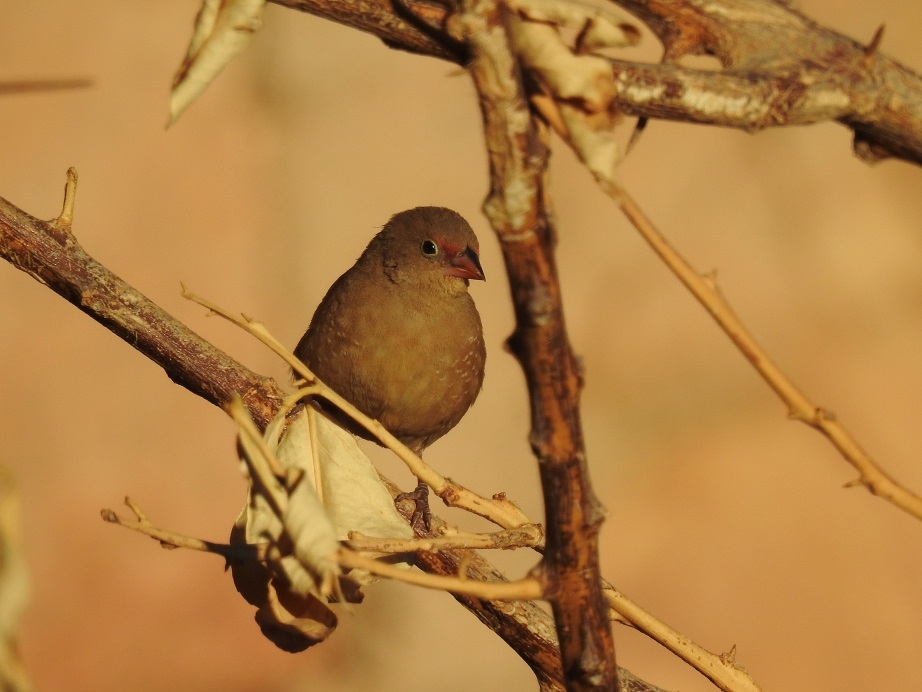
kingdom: Animalia
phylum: Chordata
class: Aves
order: Passeriformes
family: Estrildidae
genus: Lagonosticta
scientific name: Lagonosticta senegala
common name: Red-billed firefinch
